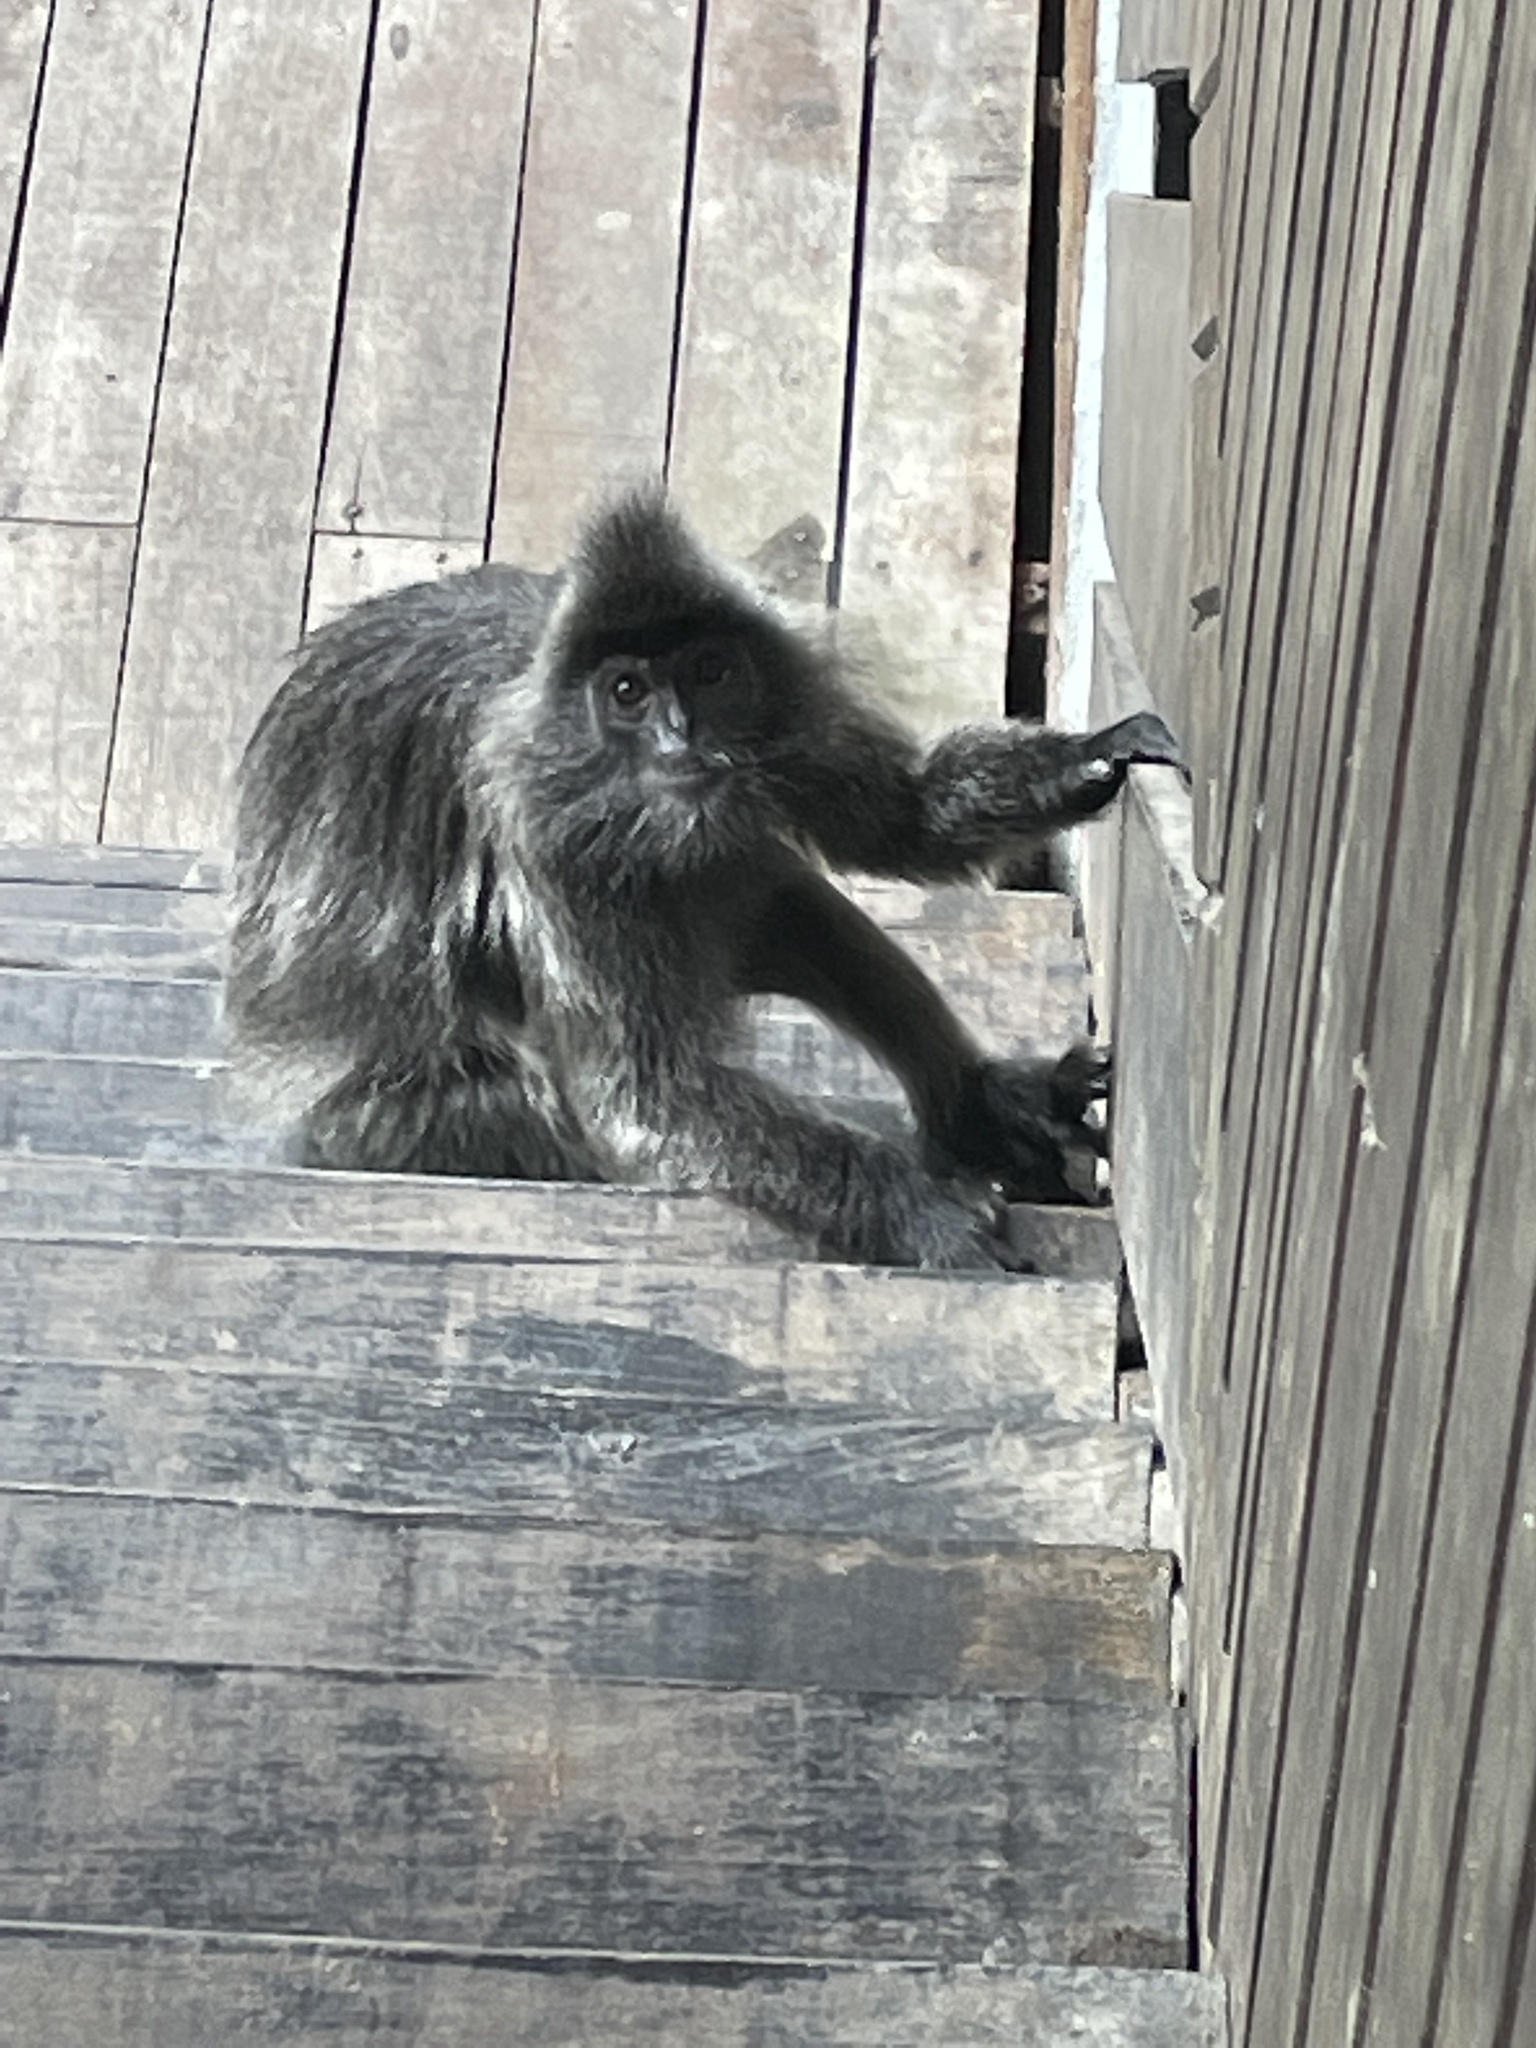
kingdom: Animalia
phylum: Chordata
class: Mammalia
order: Primates
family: Cercopithecidae
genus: Trachypithecus
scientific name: Trachypithecus cristatus
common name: Silvery lutung
